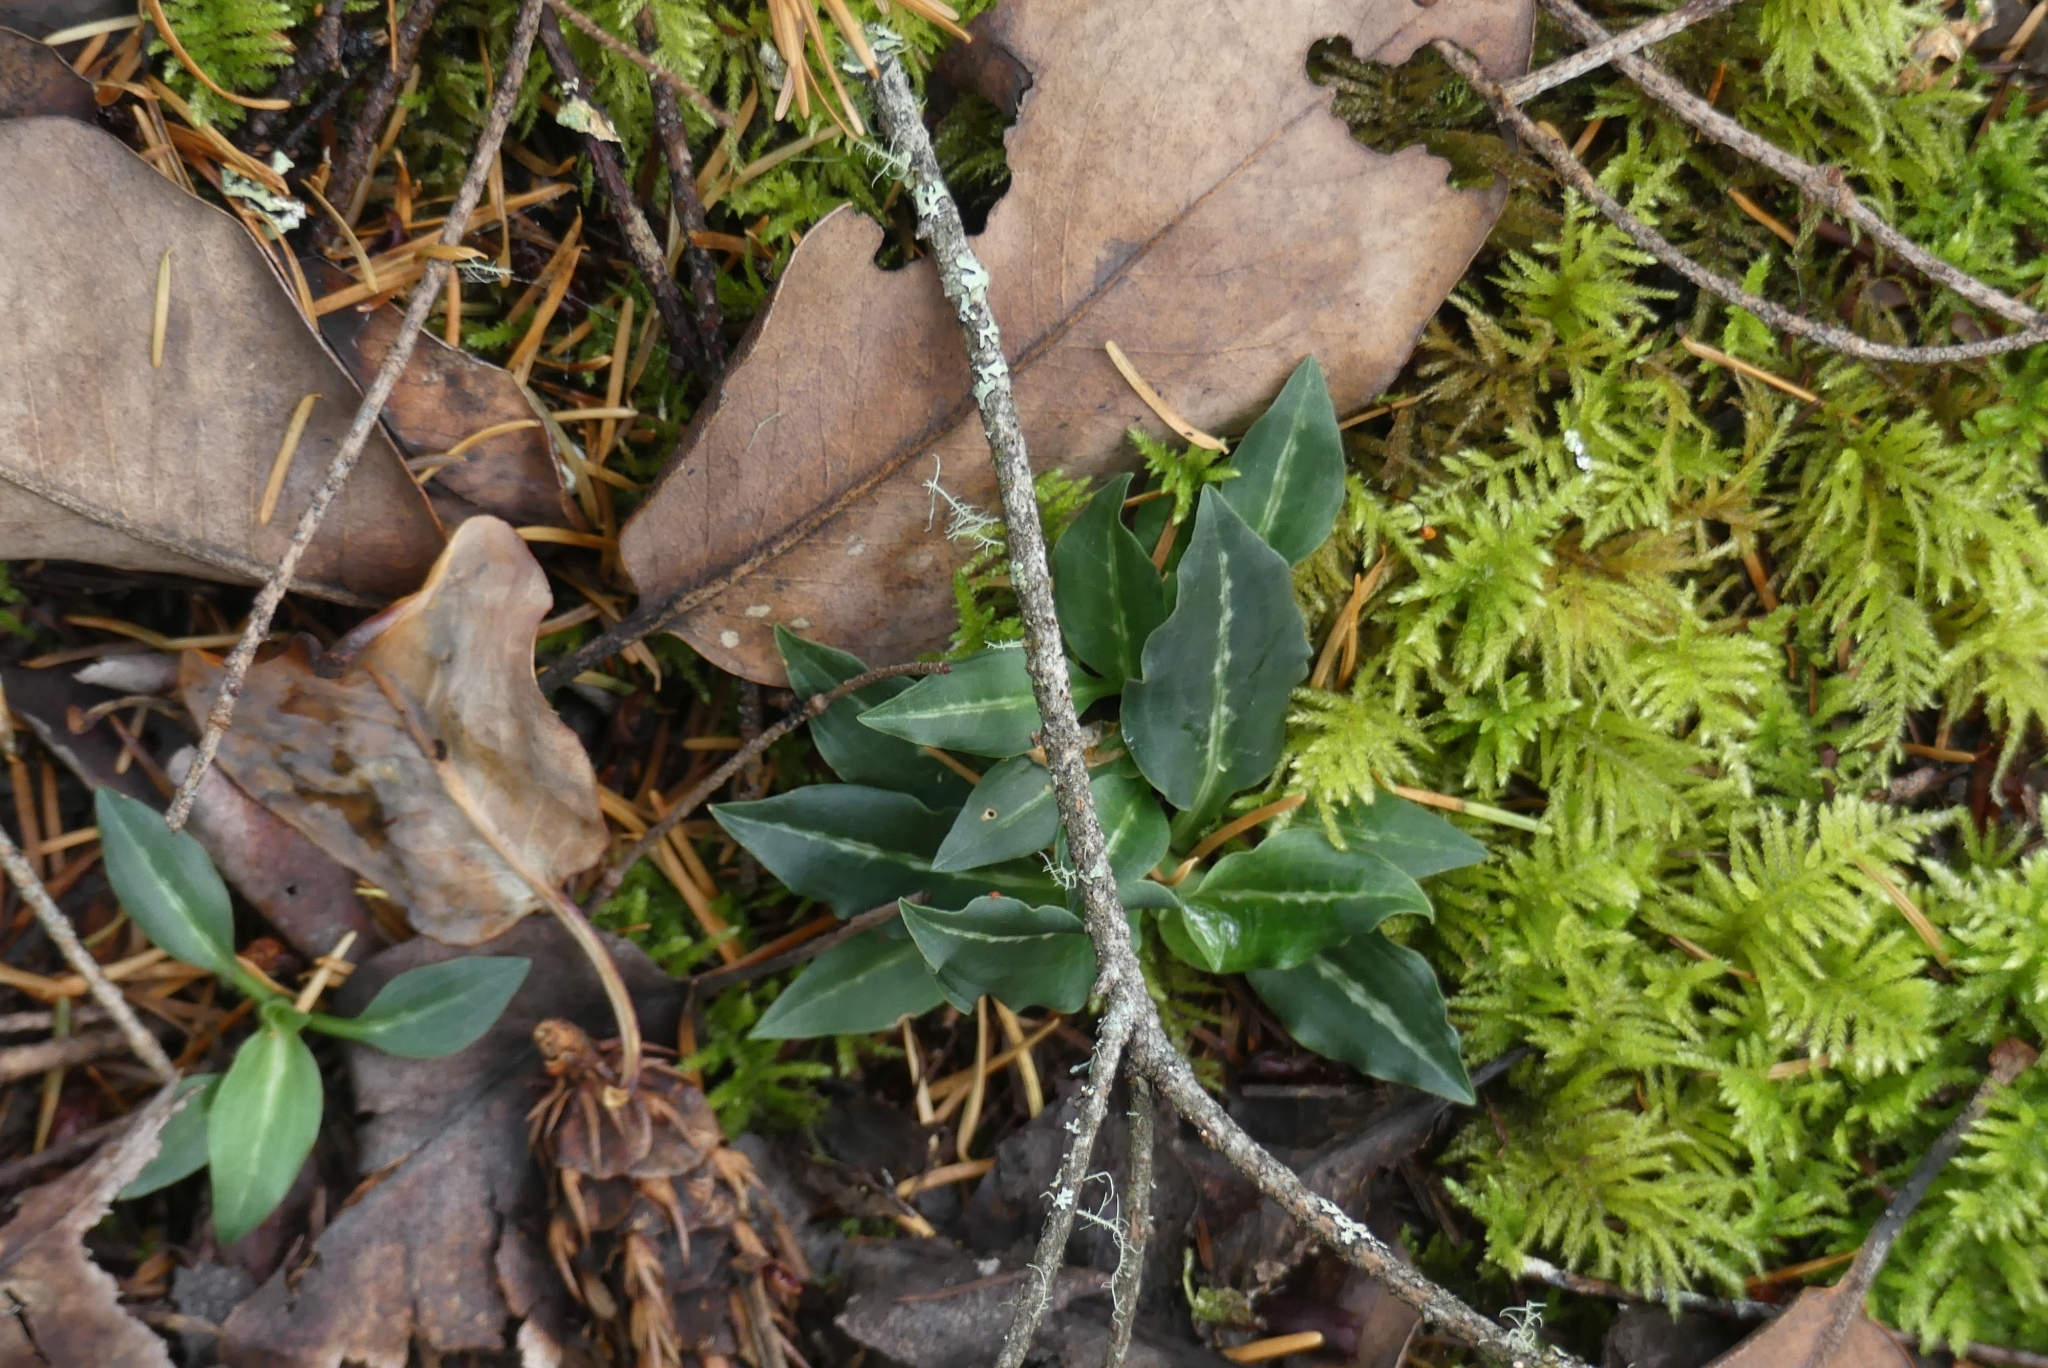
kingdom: Plantae
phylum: Tracheophyta
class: Liliopsida
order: Asparagales
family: Orchidaceae
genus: Goodyera
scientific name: Goodyera oblongifolia
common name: Giant rattlesnake-plantain
